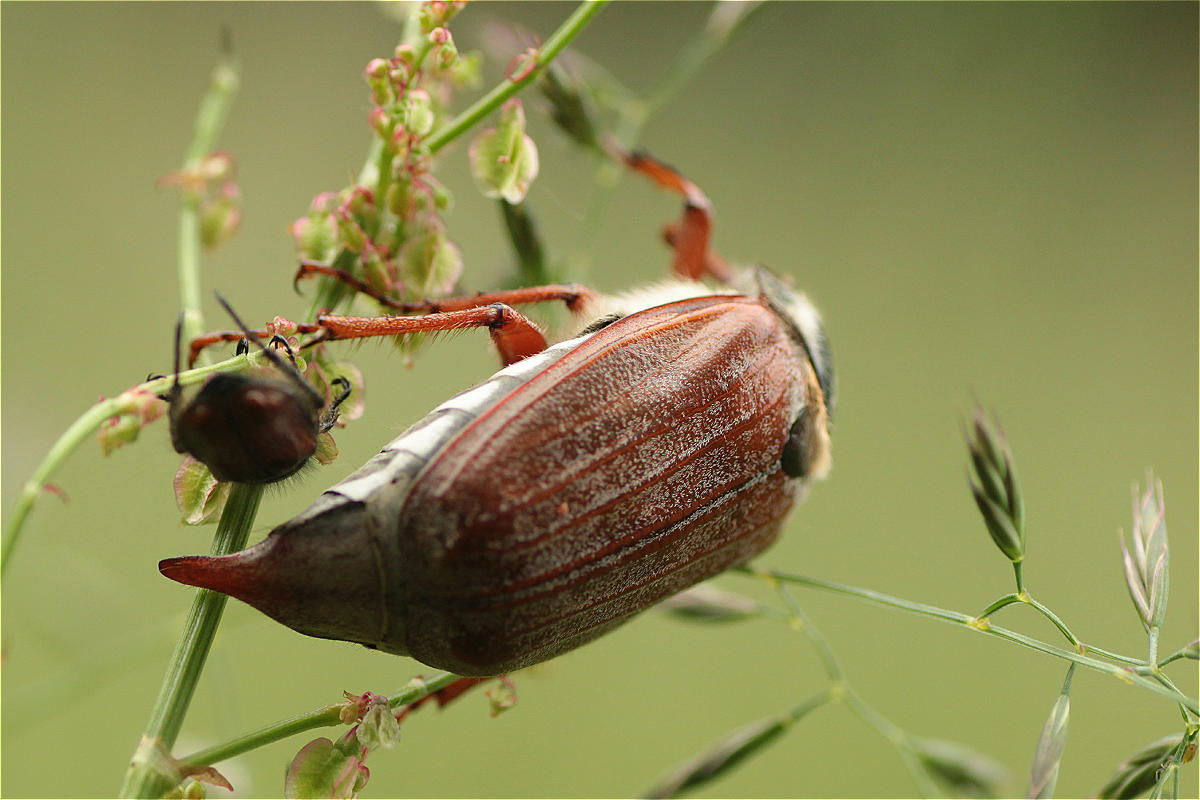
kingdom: Animalia
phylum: Arthropoda
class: Insecta
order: Coleoptera
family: Scarabaeidae
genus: Melolontha
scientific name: Melolontha melolontha
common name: Cockchafer maybeetle
